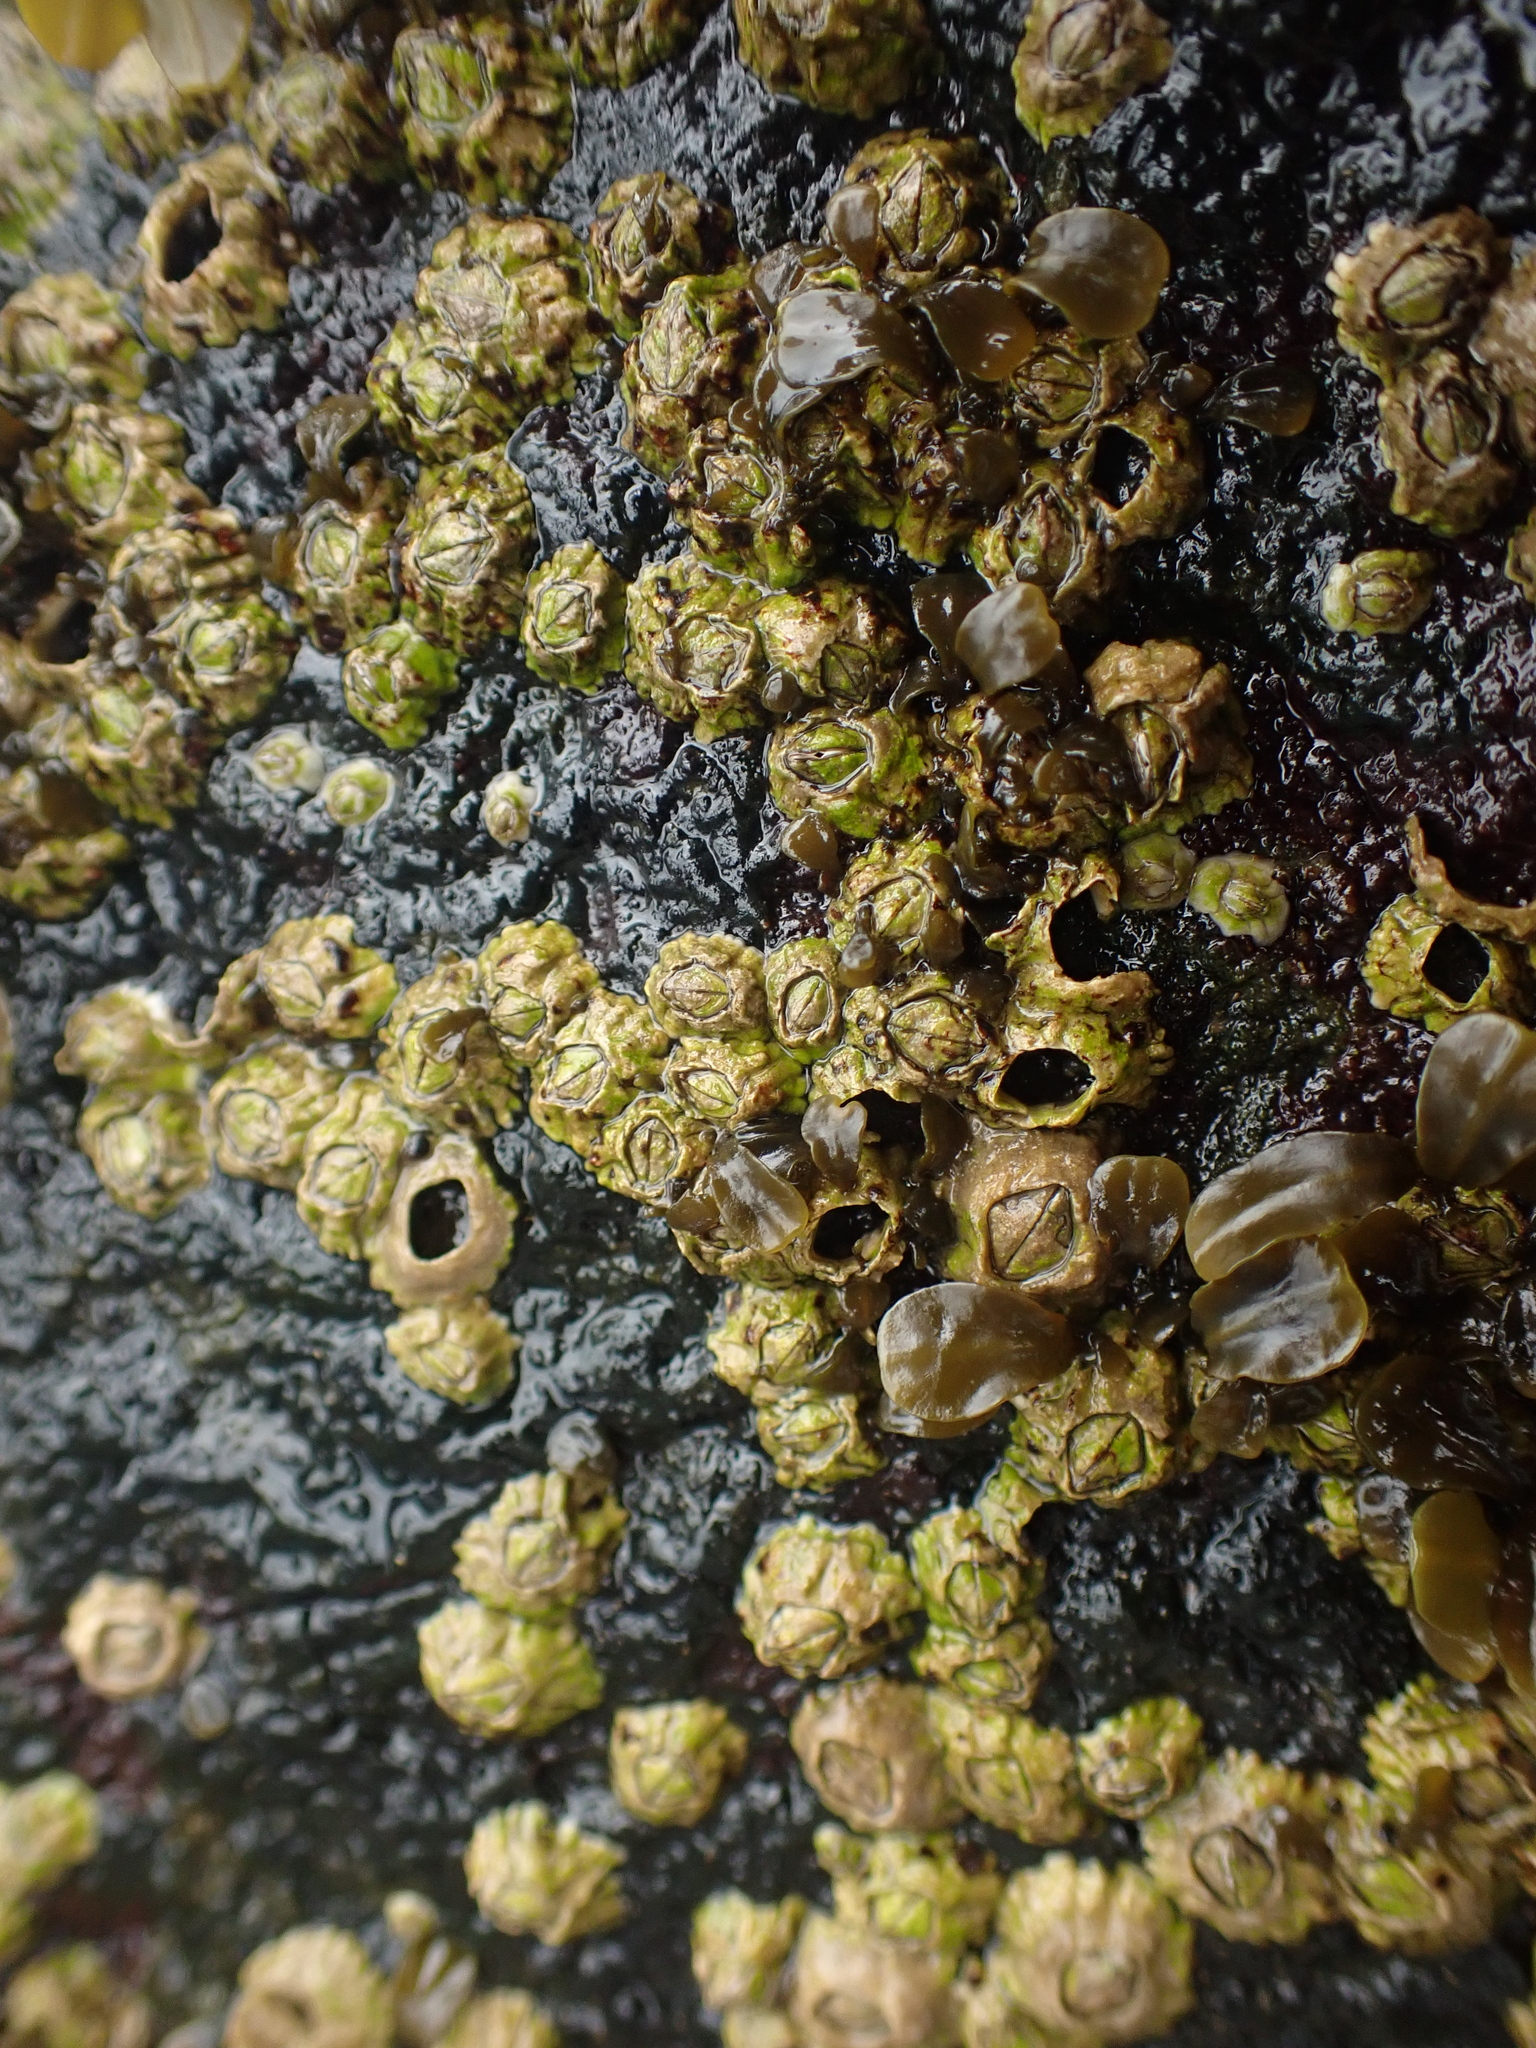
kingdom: Animalia
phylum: Arthropoda
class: Maxillopoda
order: Sessilia
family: Archaeobalanidae
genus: Semibalanus
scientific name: Semibalanus balanoides
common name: Acorn barnacle
